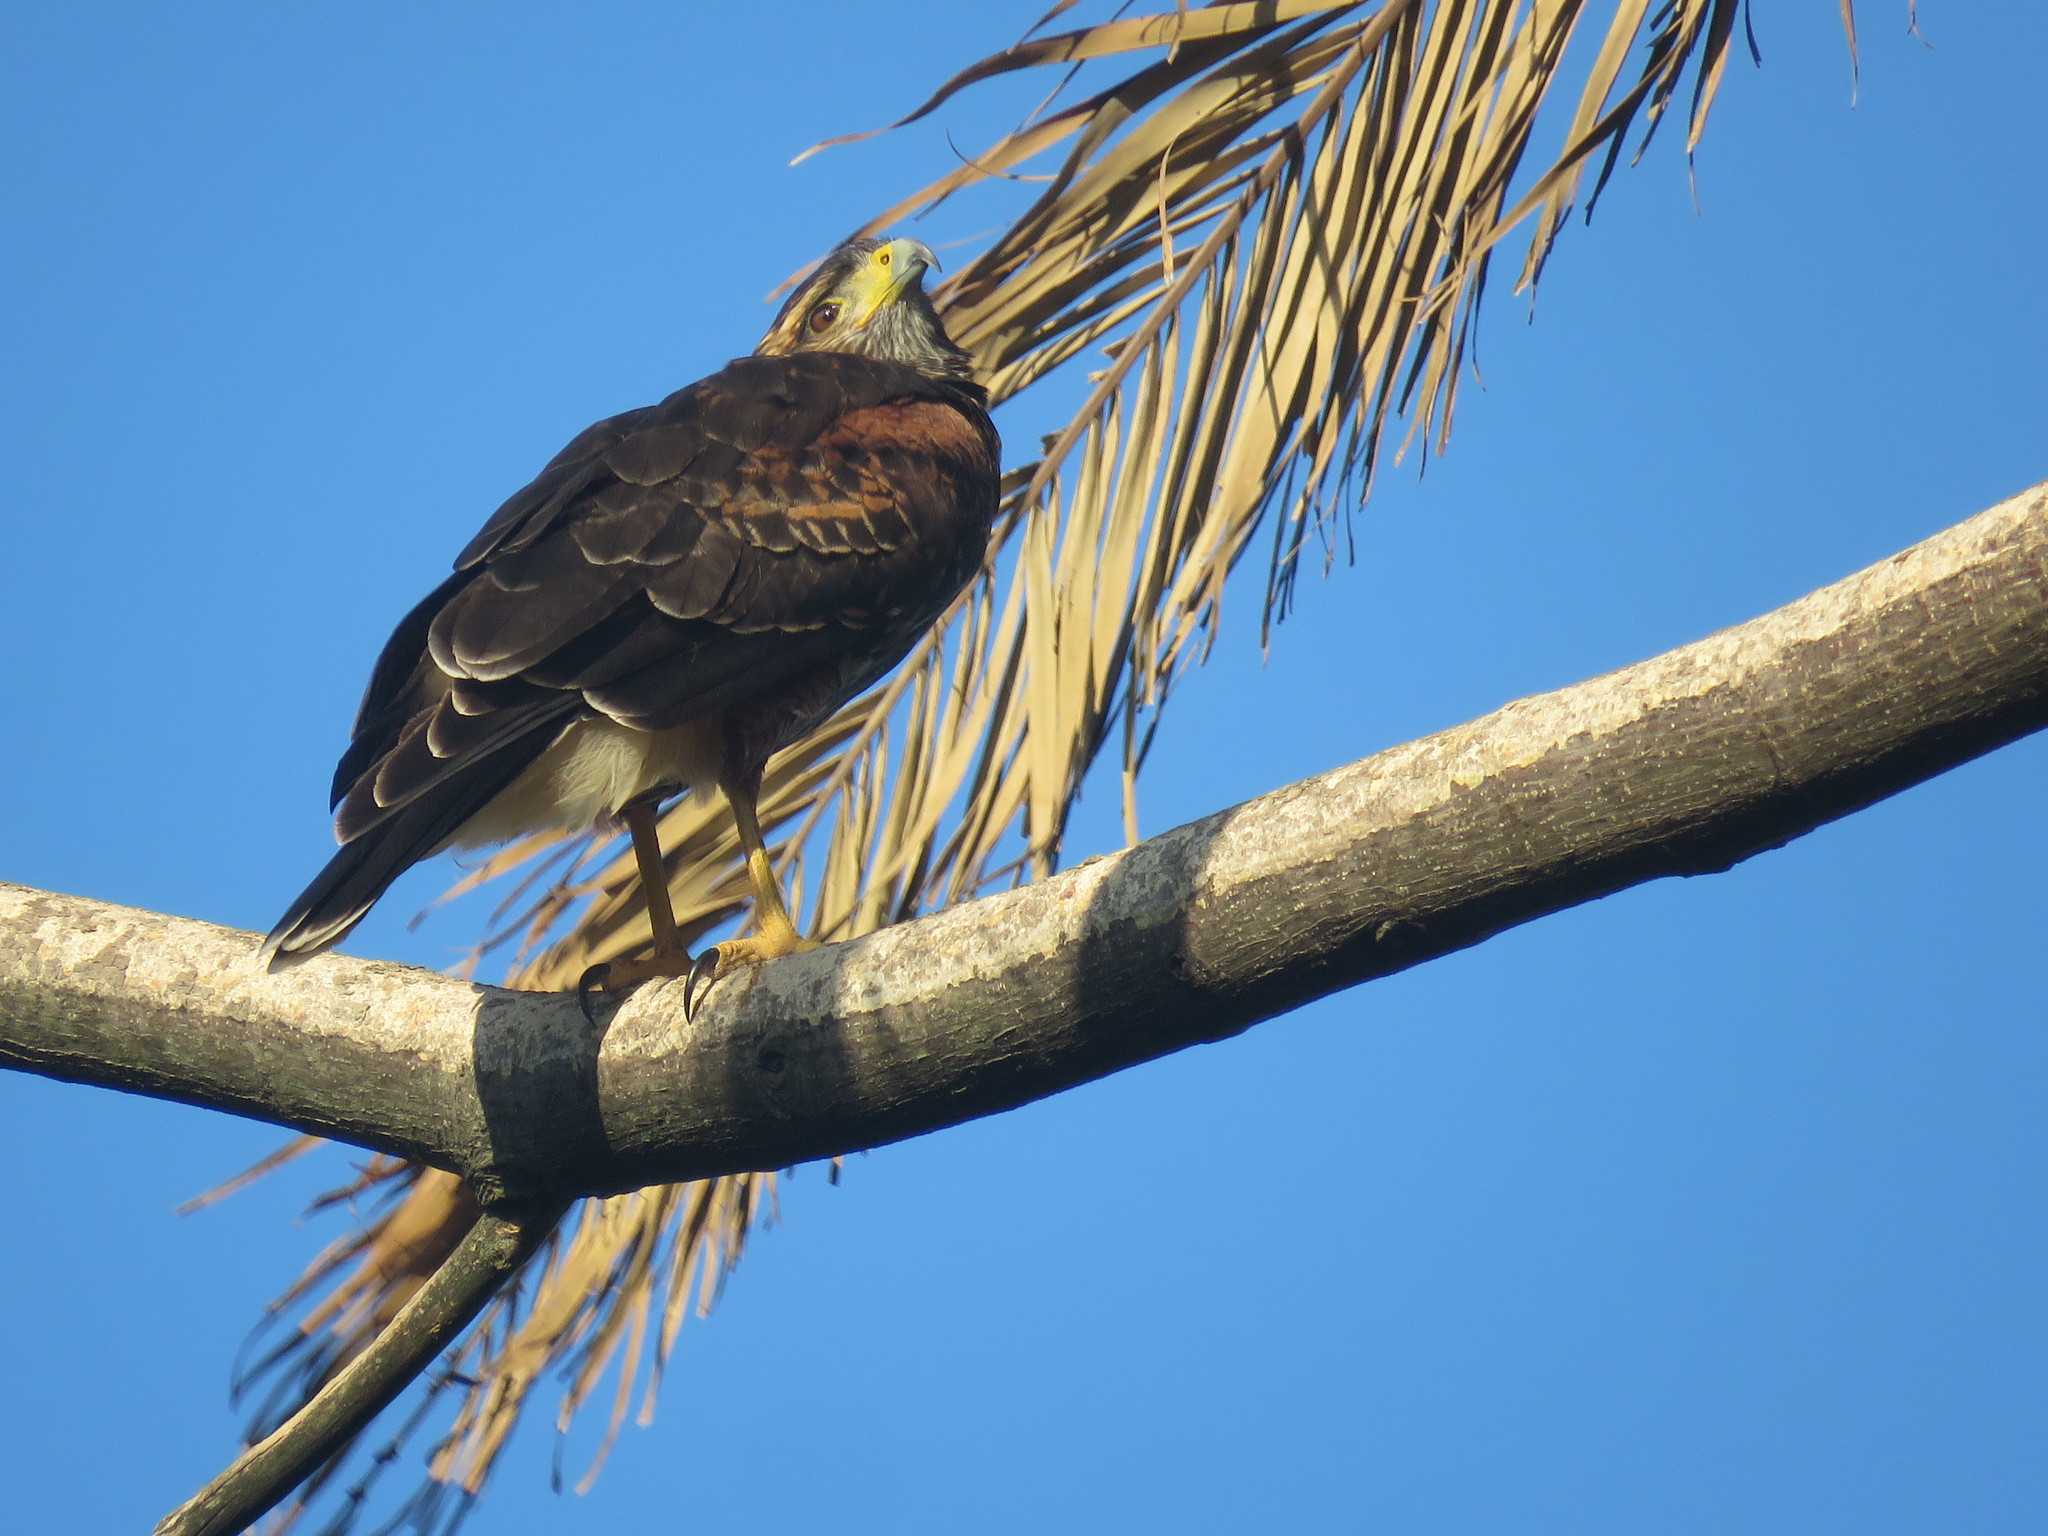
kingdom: Animalia
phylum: Chordata
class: Aves
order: Accipitriformes
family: Accipitridae
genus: Parabuteo
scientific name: Parabuteo unicinctus
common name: Harris's hawk
